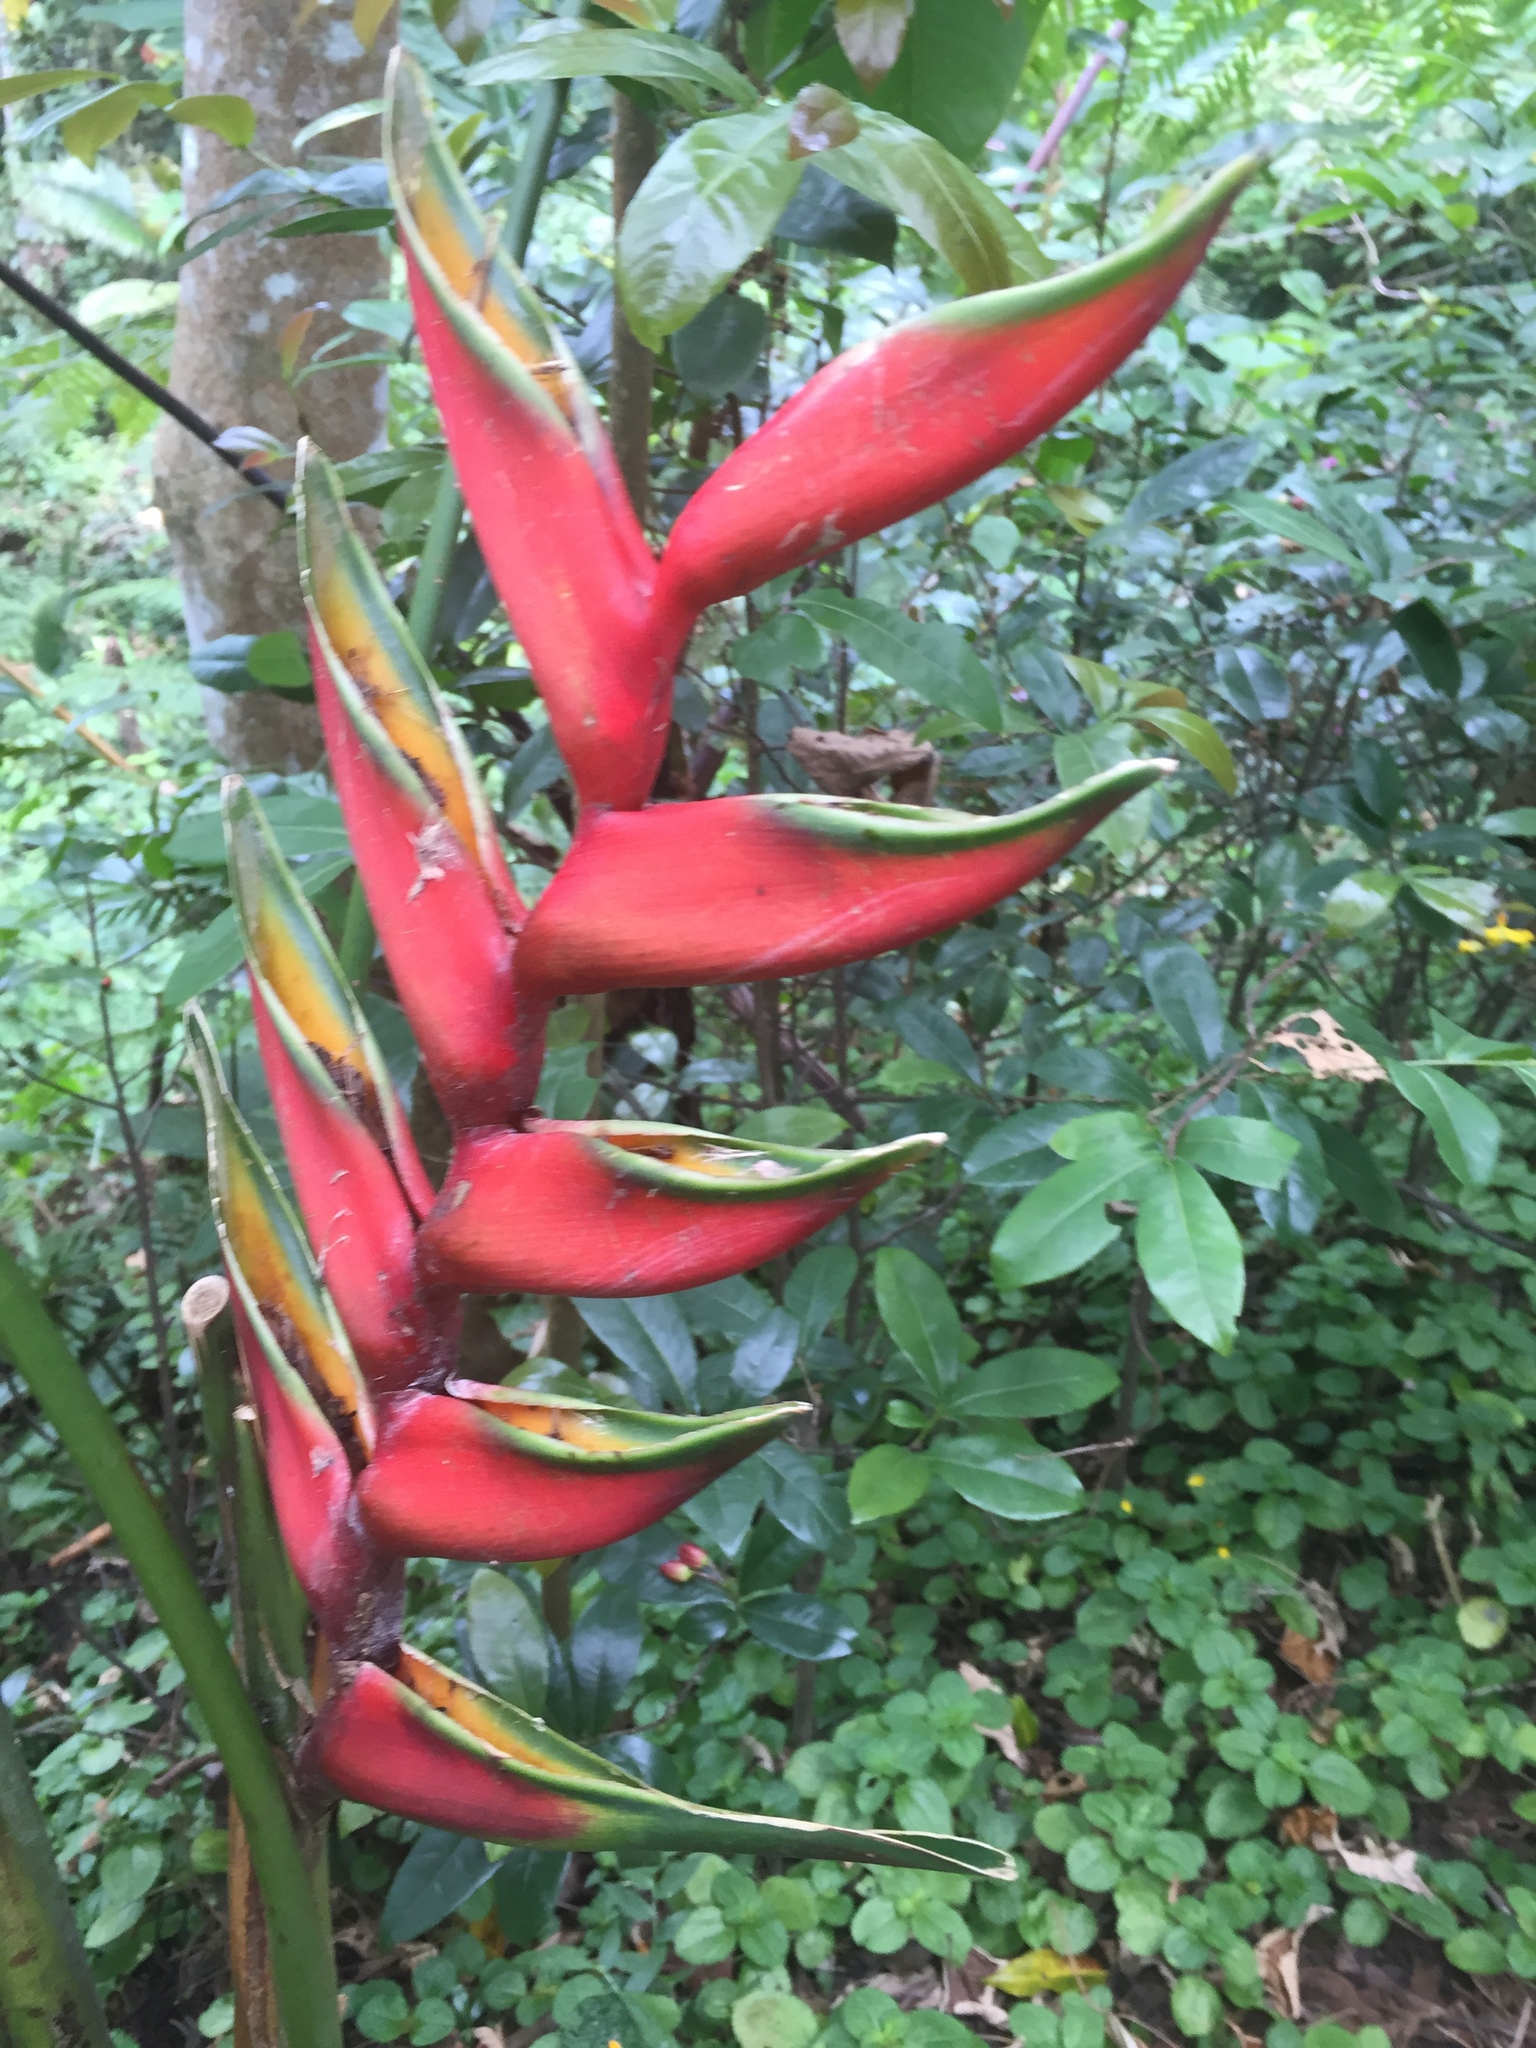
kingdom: Plantae
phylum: Tracheophyta
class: Liliopsida
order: Zingiberales
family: Heliconiaceae
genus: Heliconia
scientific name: Heliconia bihai
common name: Macaw flower
